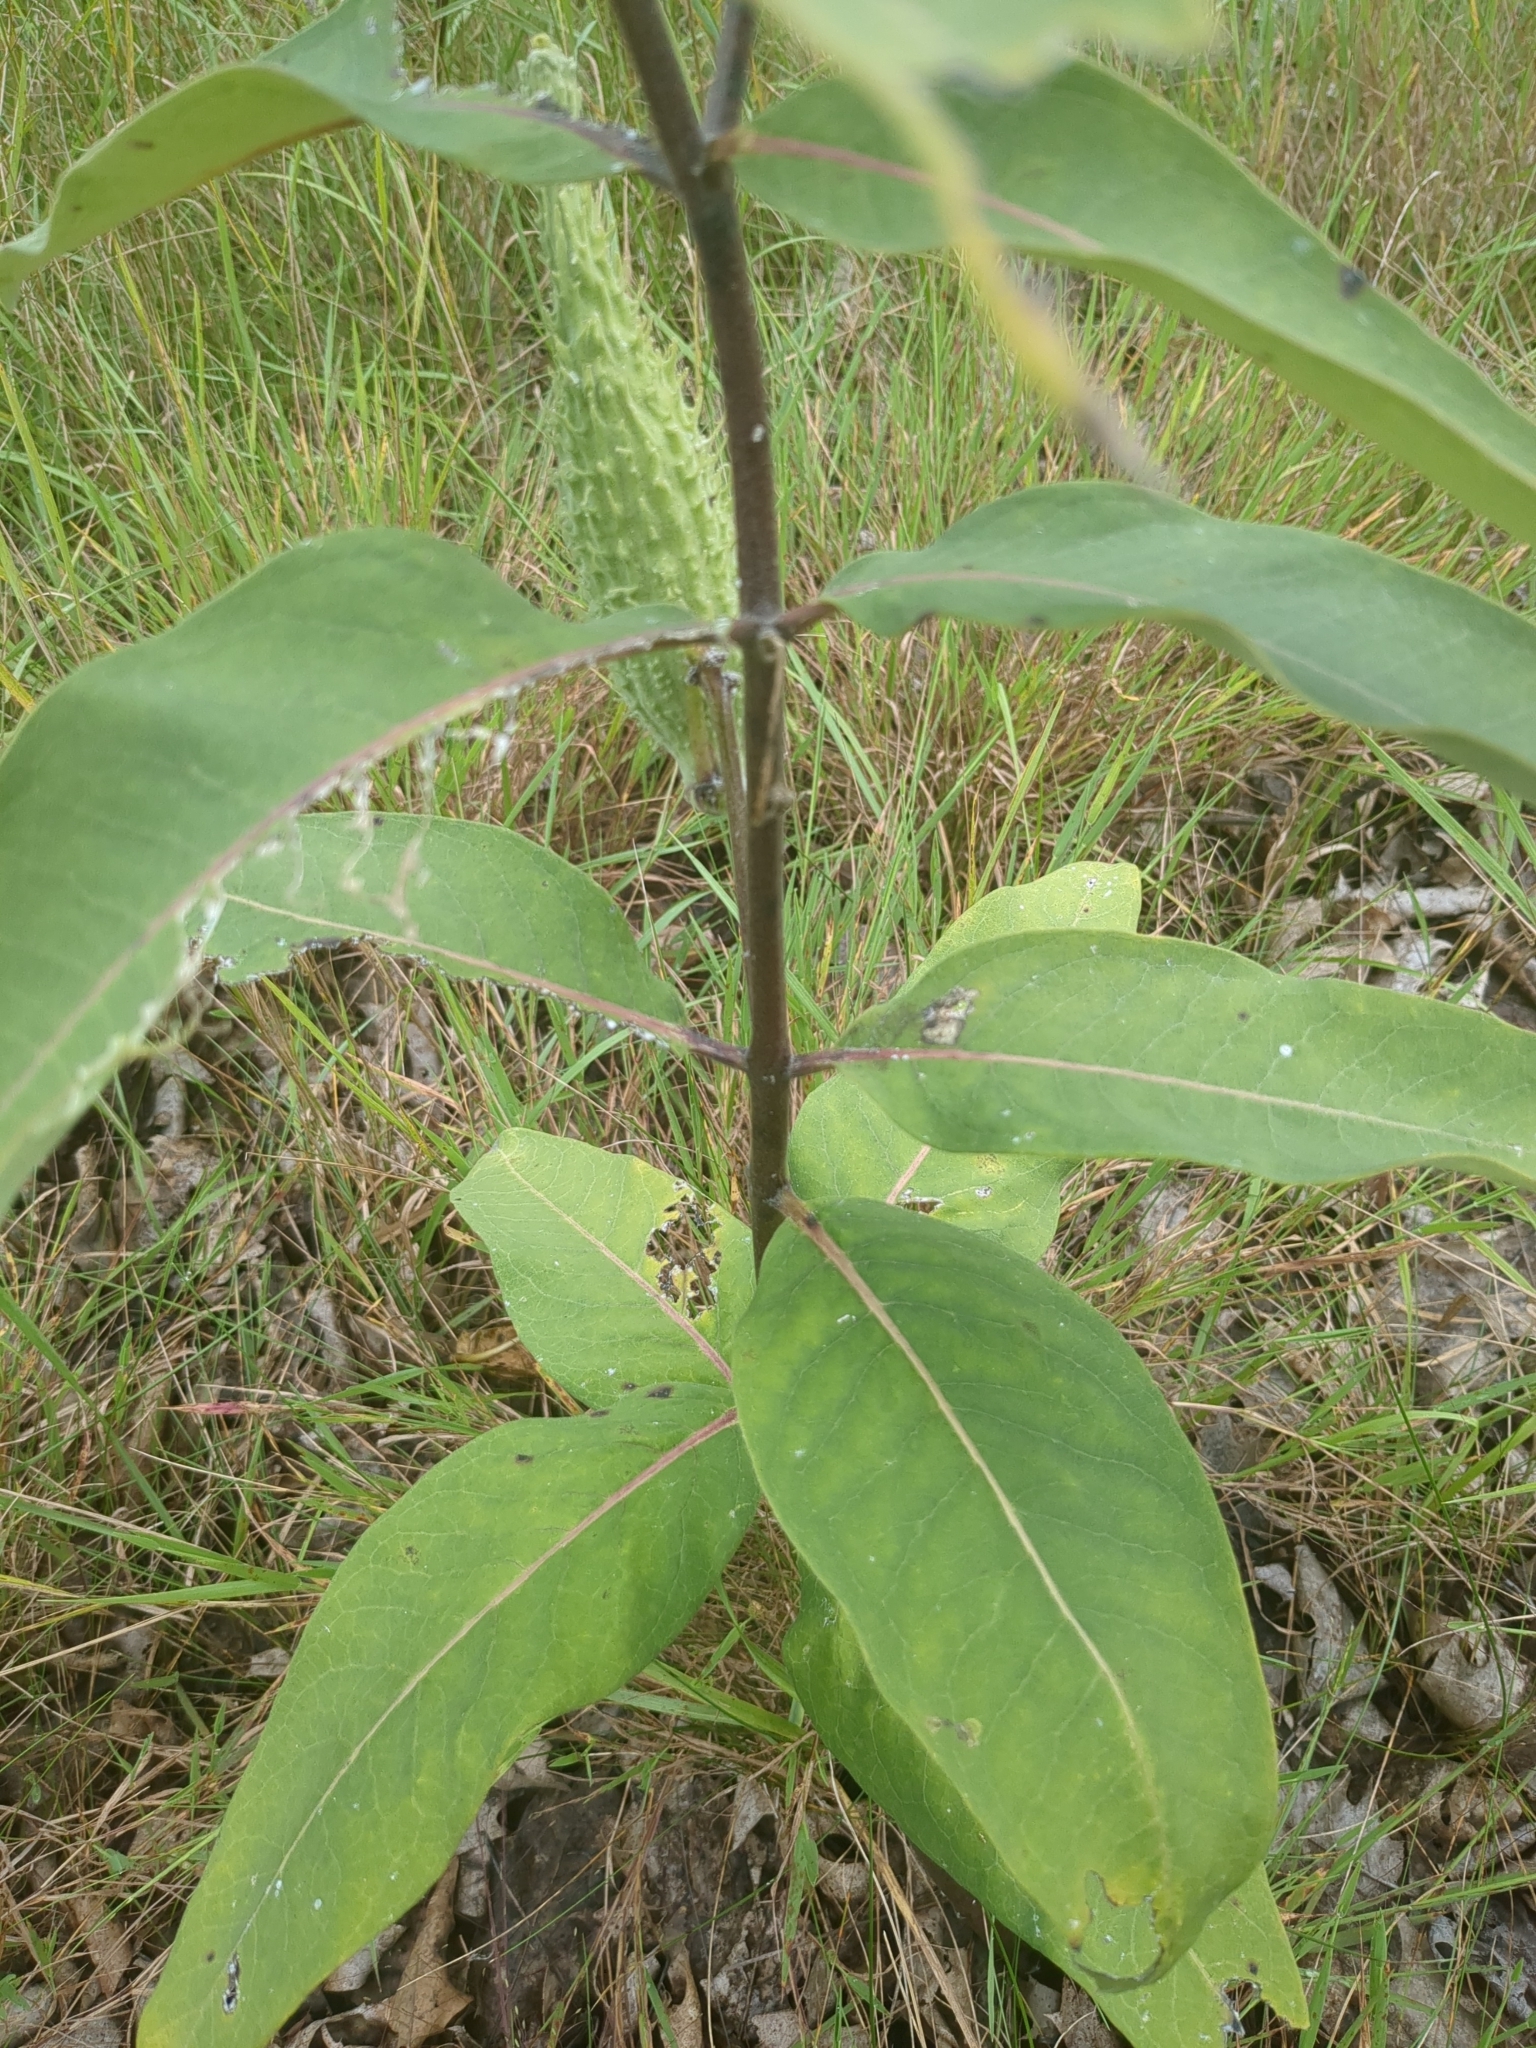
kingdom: Plantae
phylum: Tracheophyta
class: Magnoliopsida
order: Gentianales
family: Apocynaceae
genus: Asclepias
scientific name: Asclepias syriaca
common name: Common milkweed
